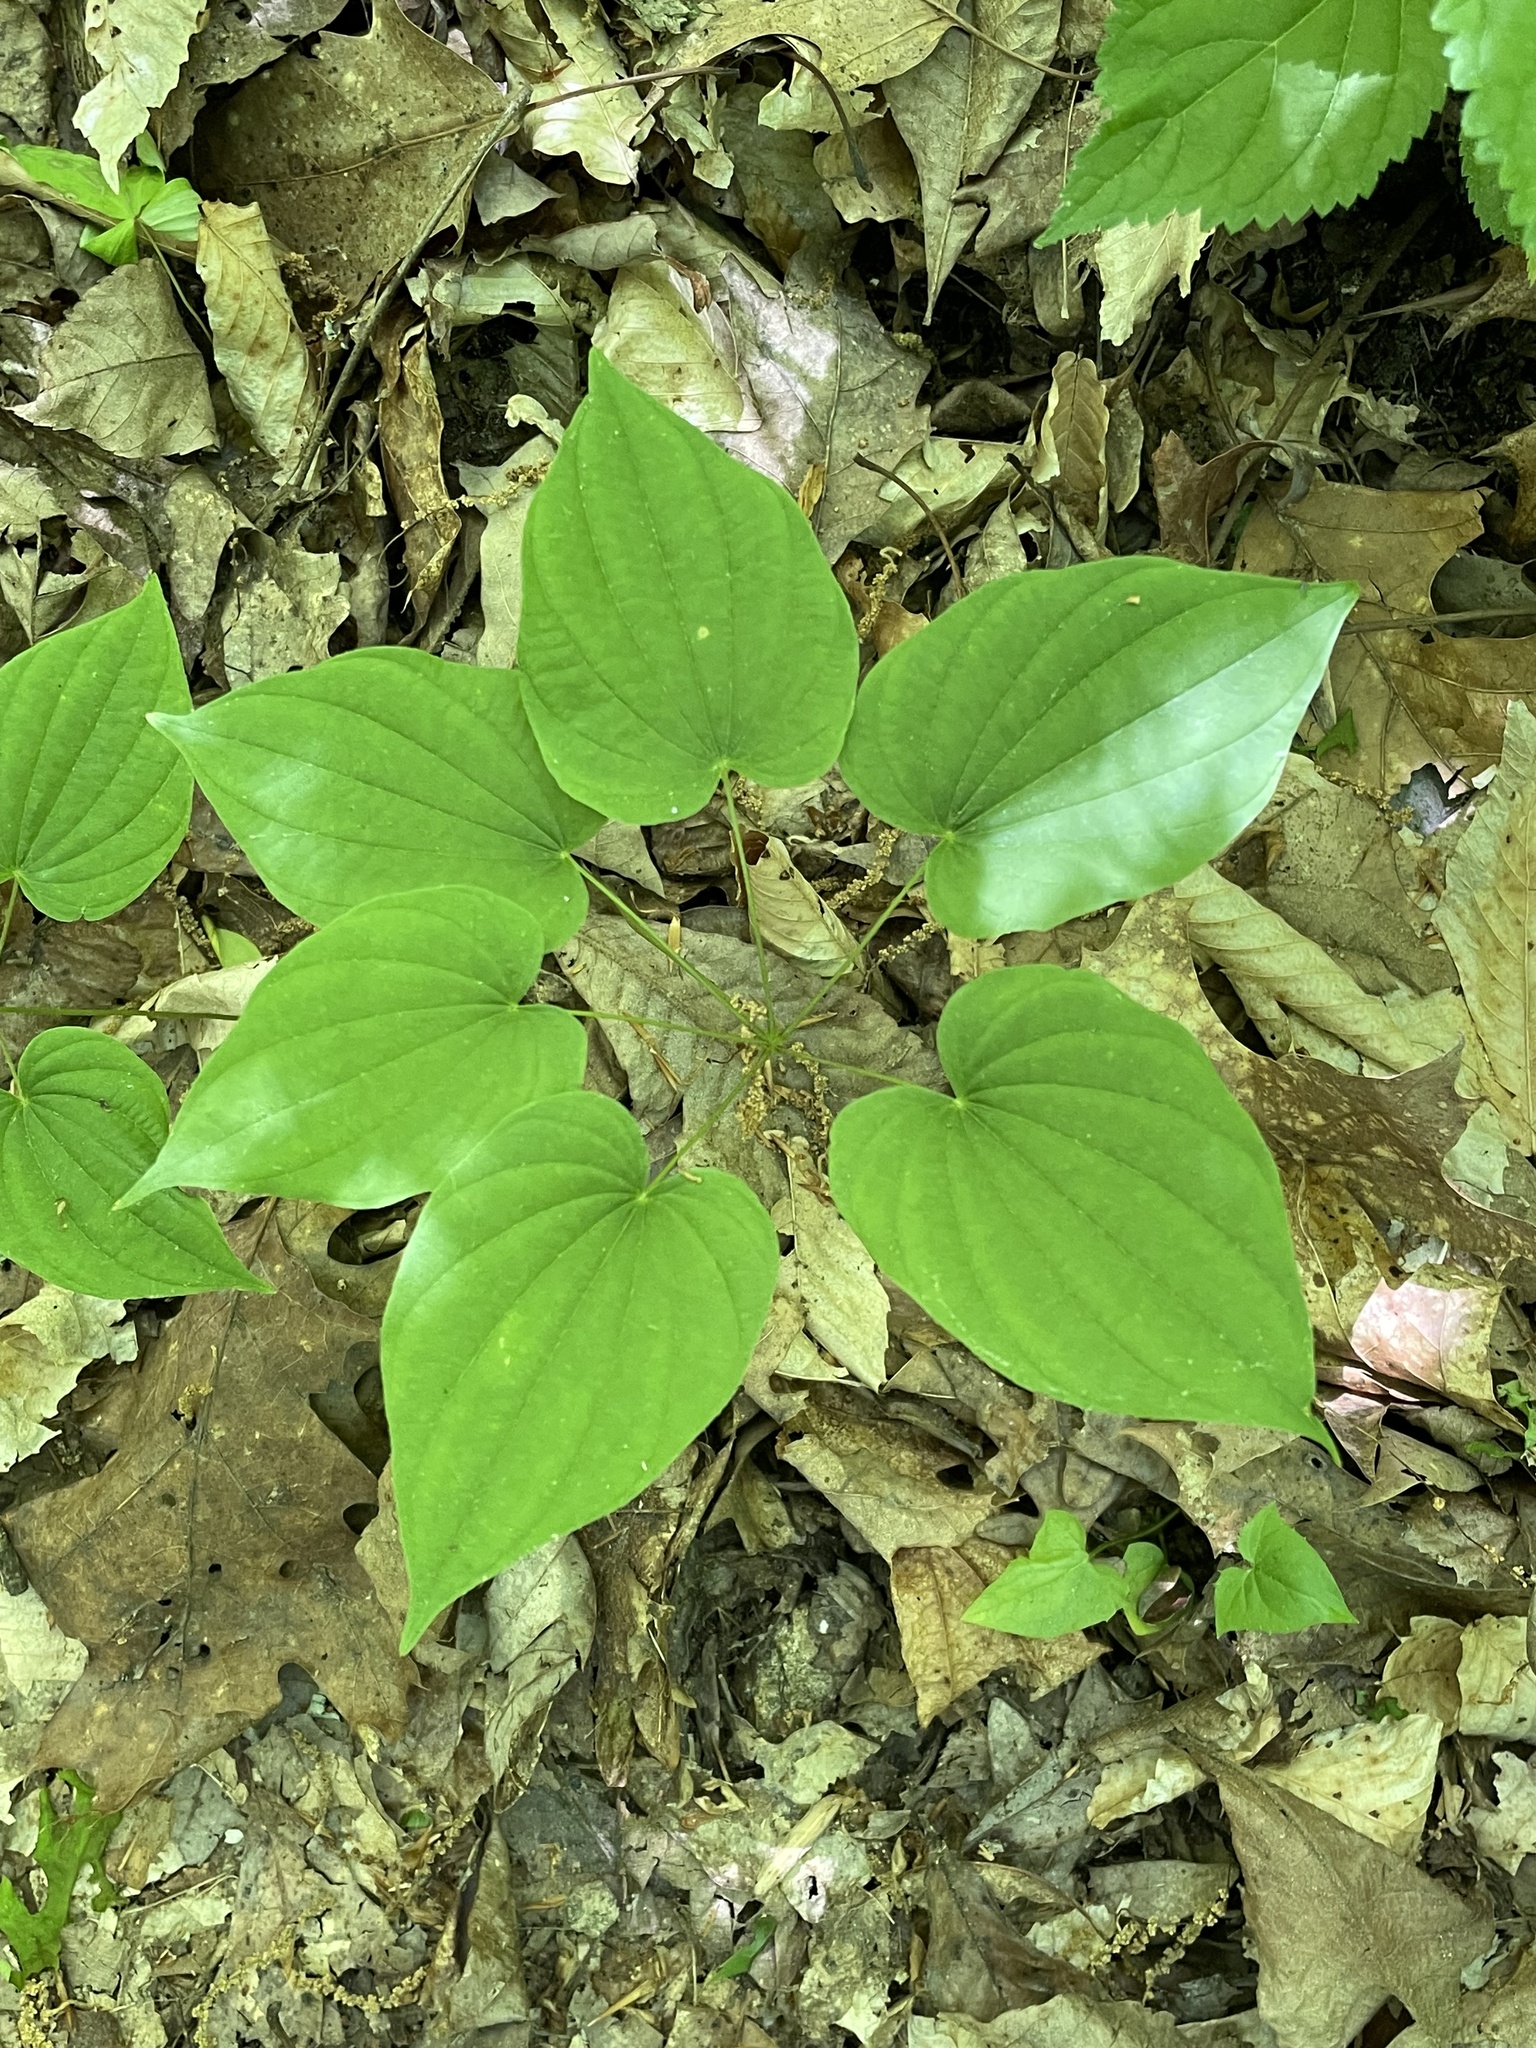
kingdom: Plantae
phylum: Tracheophyta
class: Liliopsida
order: Dioscoreales
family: Dioscoreaceae
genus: Dioscorea
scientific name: Dioscorea villosa
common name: Wild yam
